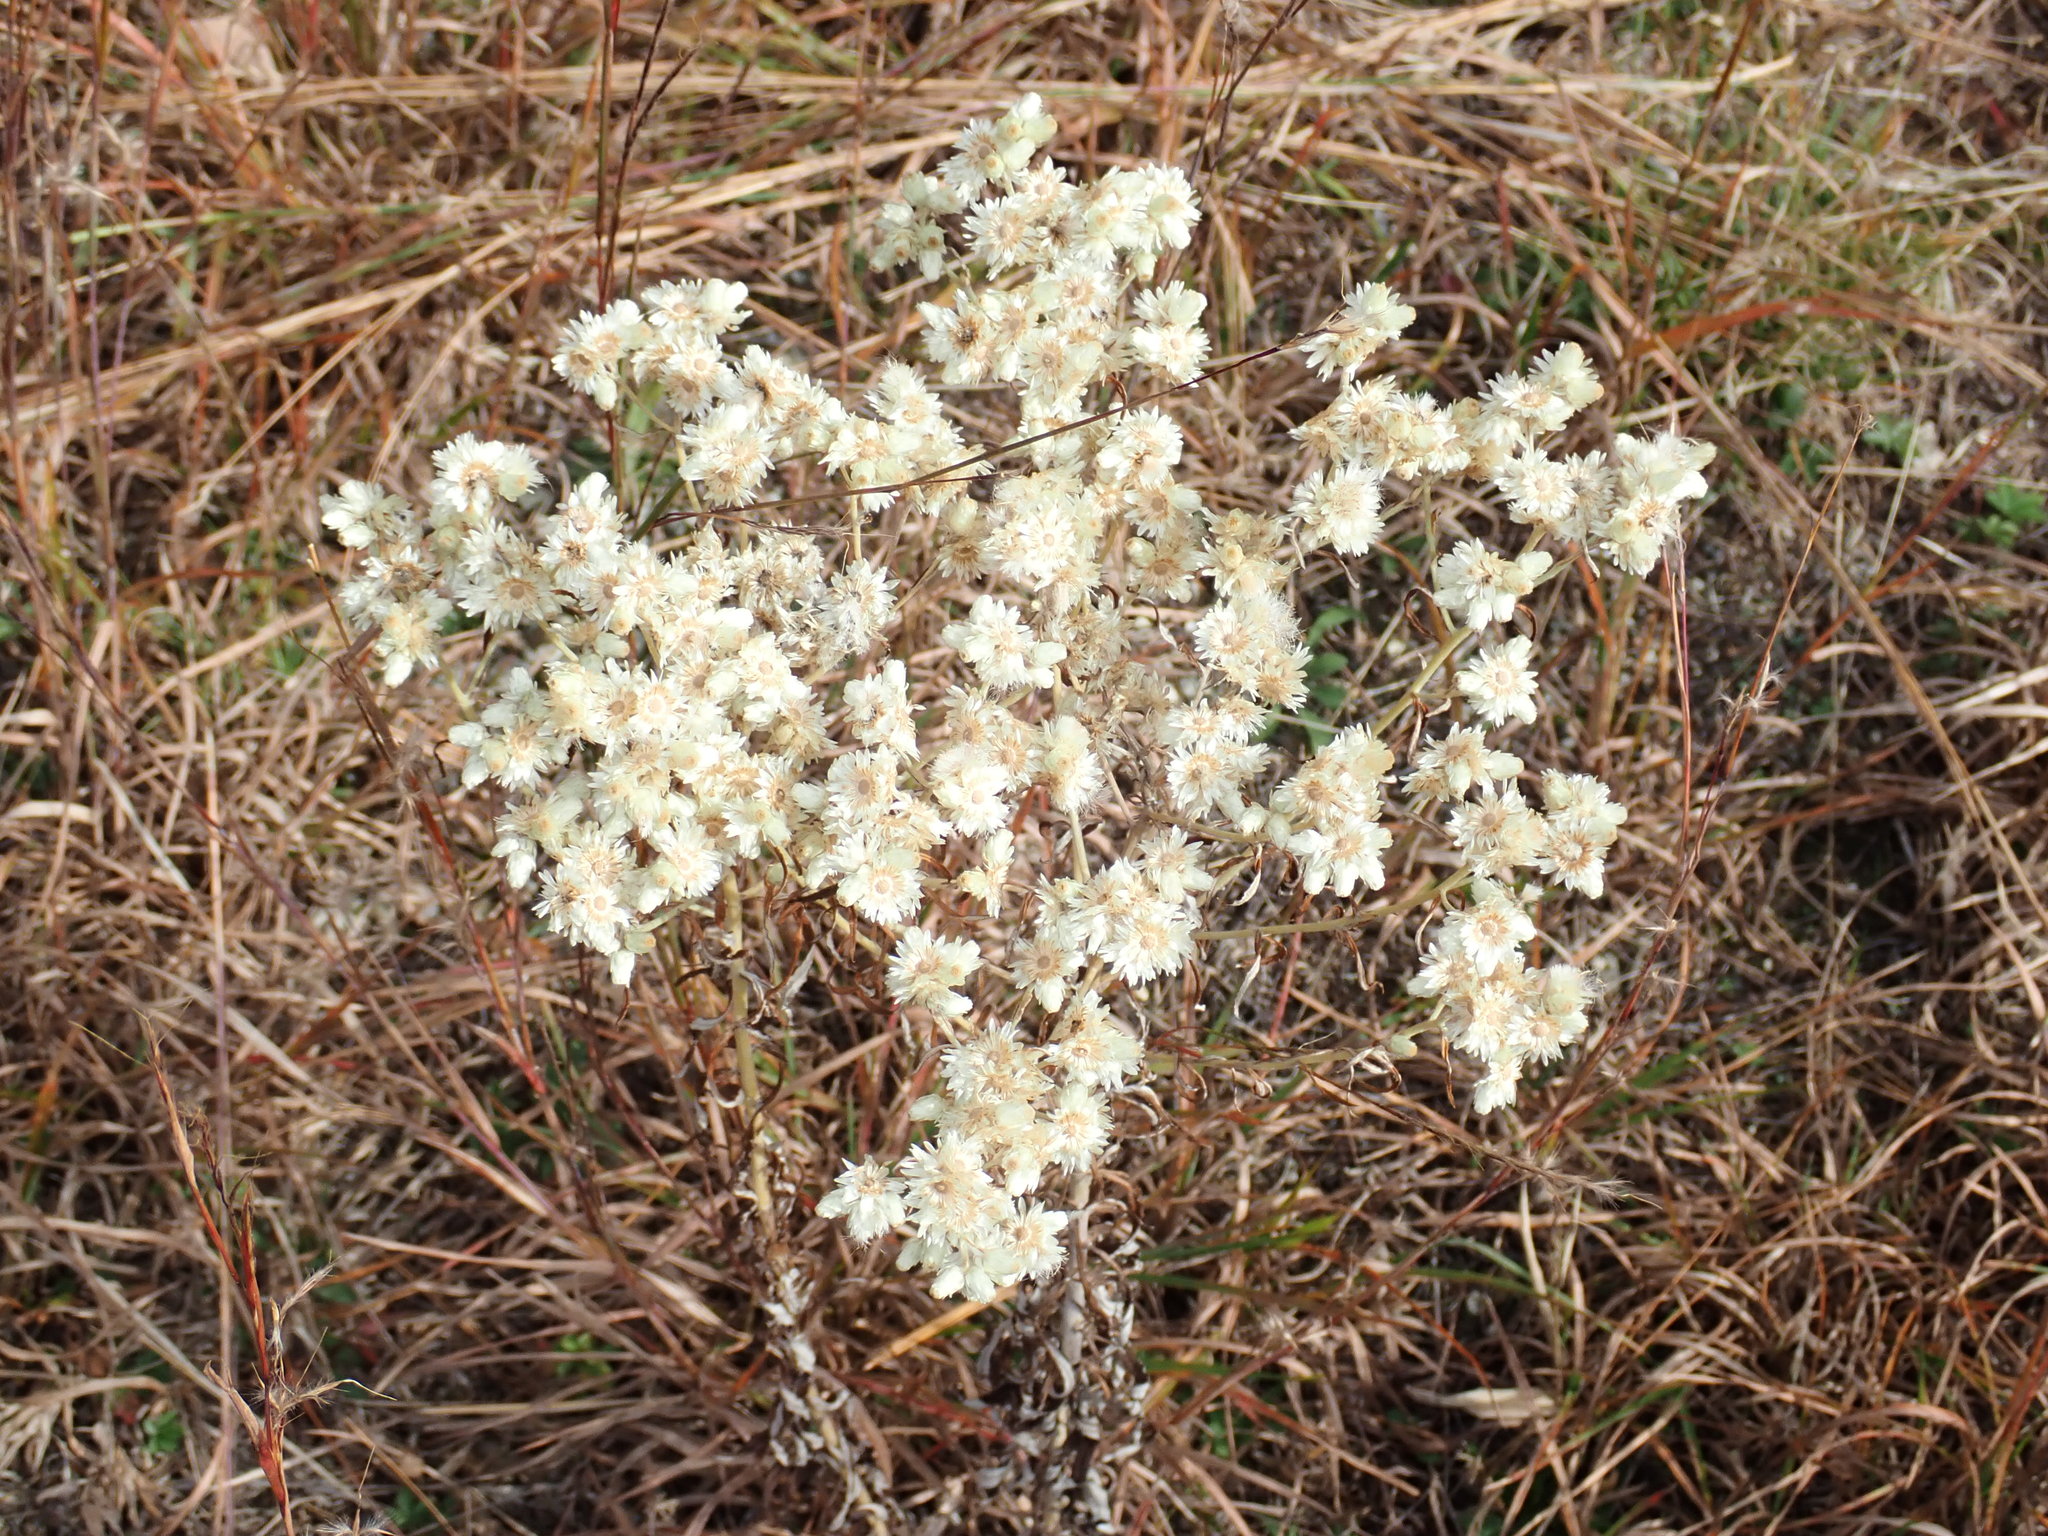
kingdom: Plantae
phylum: Tracheophyta
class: Magnoliopsida
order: Asterales
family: Asteraceae
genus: Pseudognaphalium
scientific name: Pseudognaphalium obtusifolium
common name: Eastern rabbit-tobacco
